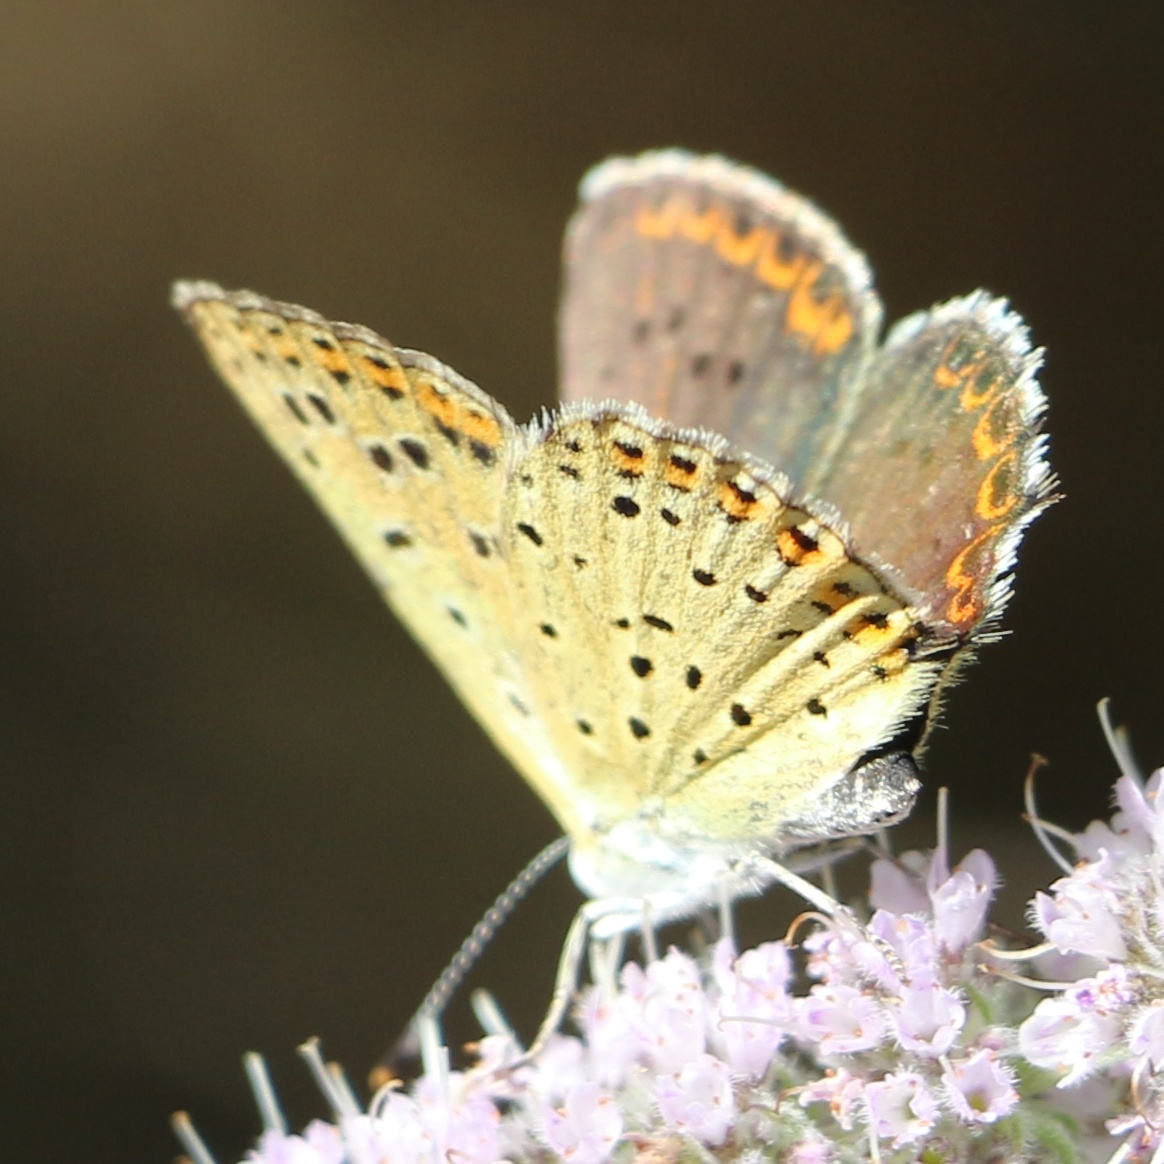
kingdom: Animalia
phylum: Arthropoda
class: Insecta
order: Lepidoptera
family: Lycaenidae
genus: Loweia
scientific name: Loweia tityrus
